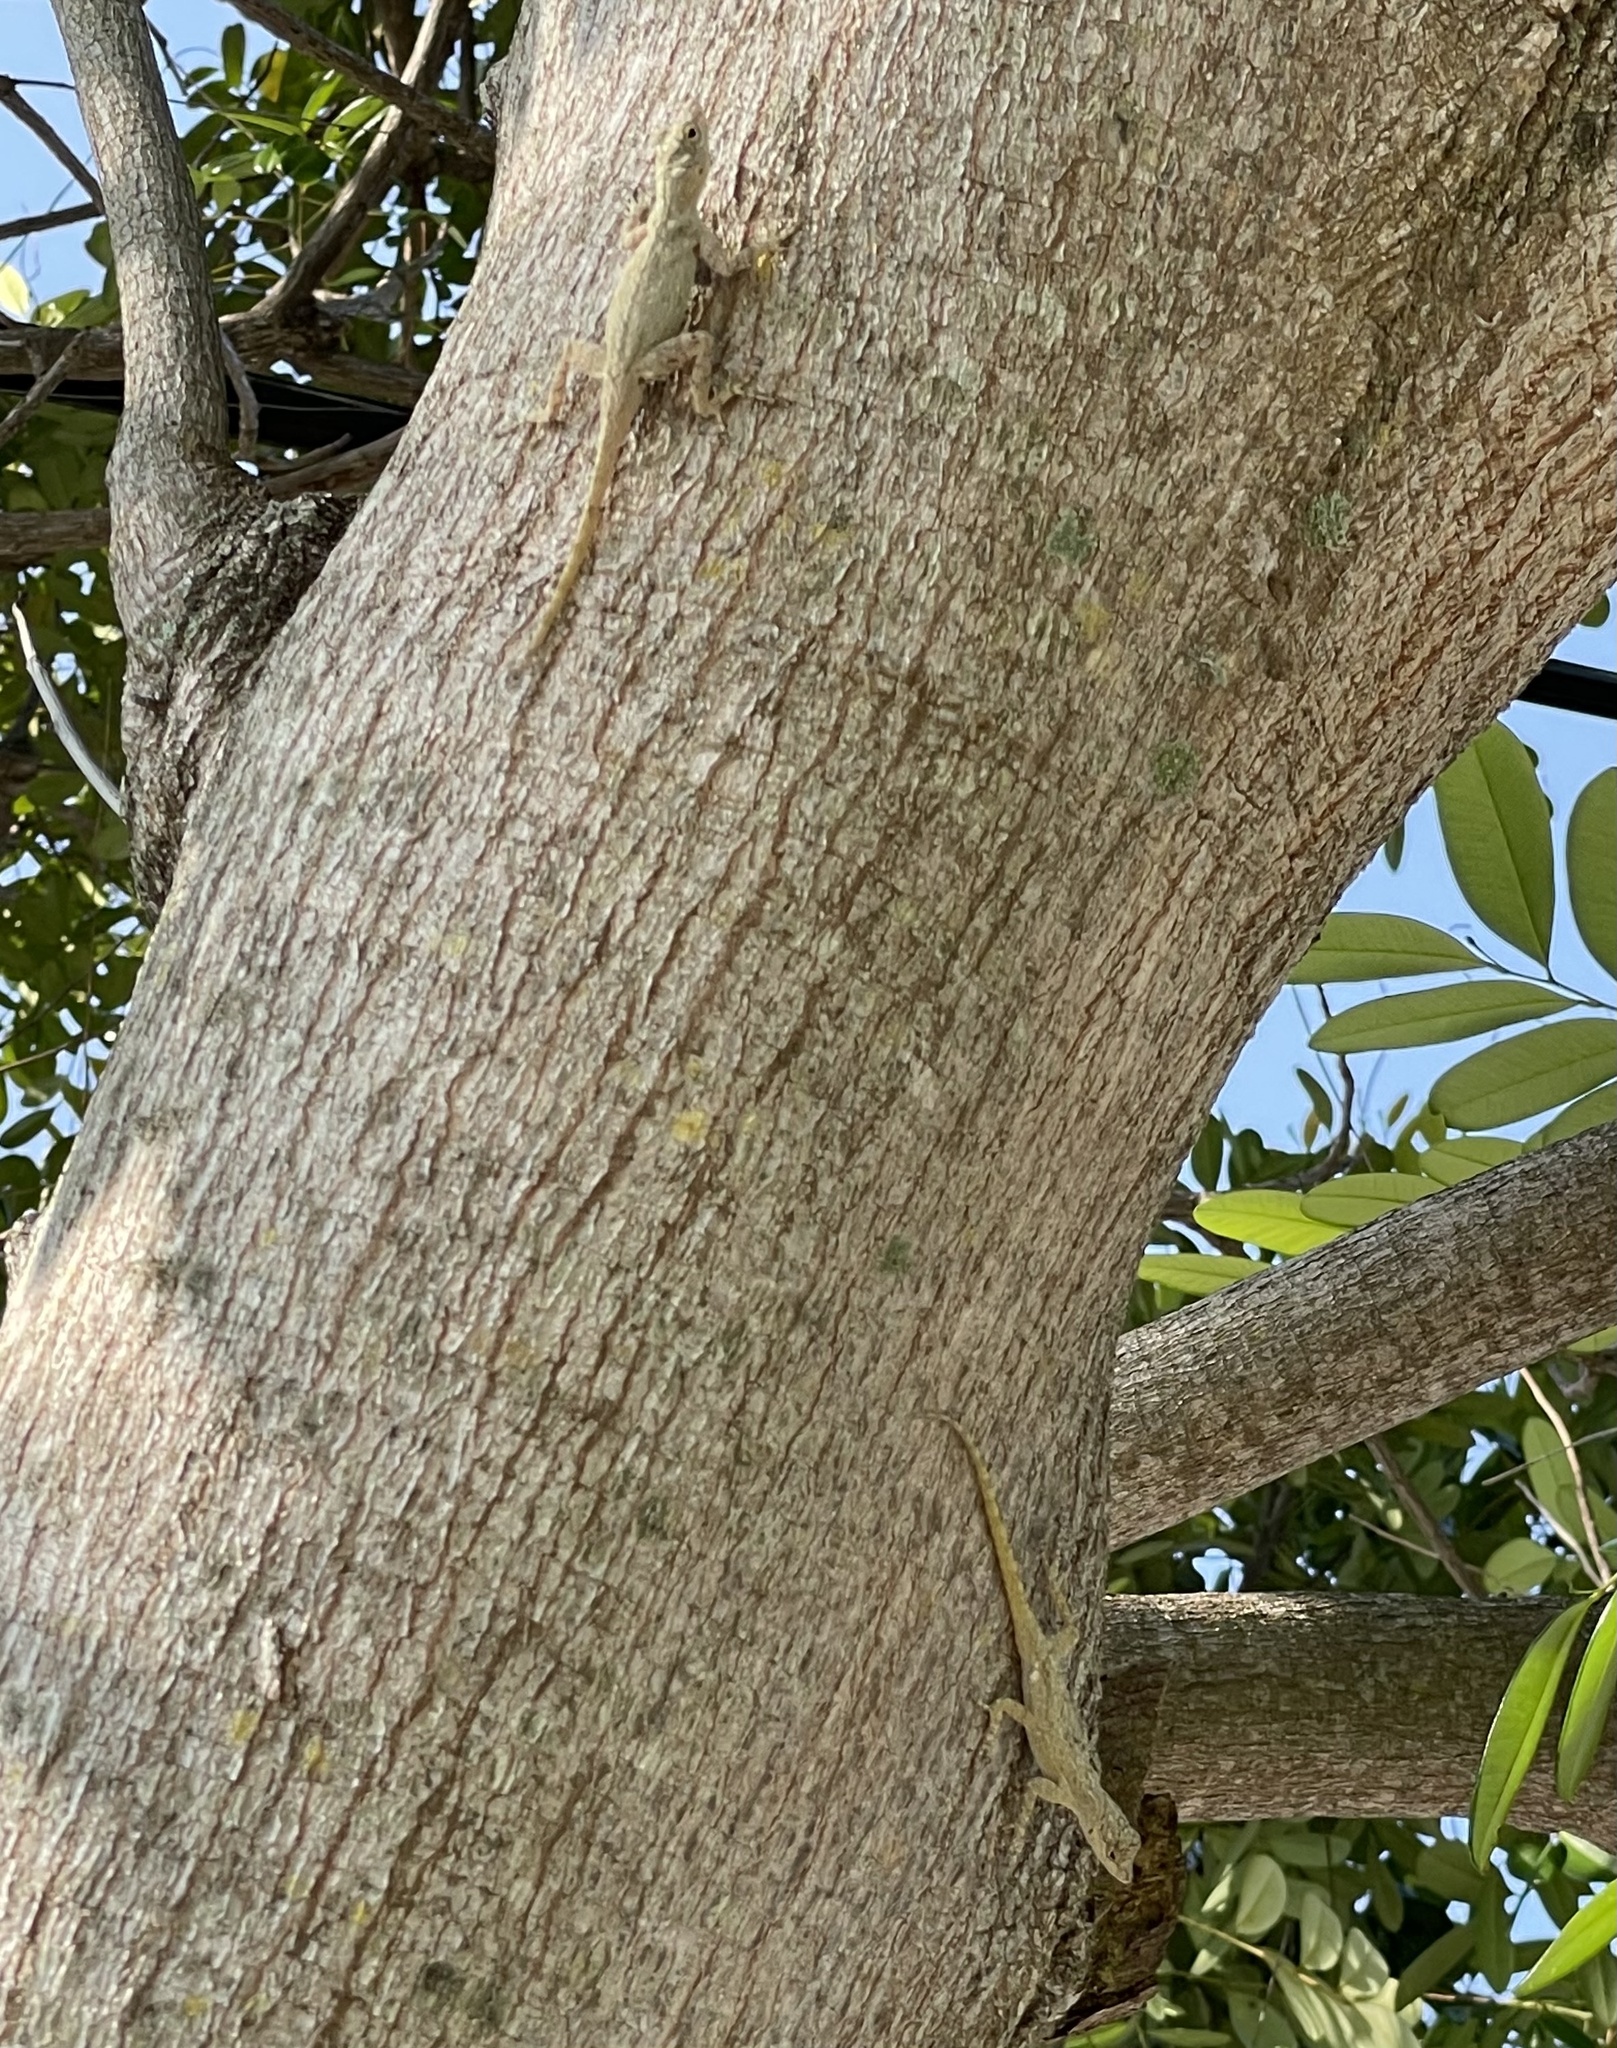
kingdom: Animalia
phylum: Chordata
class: Squamata
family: Dactyloidae
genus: Anolis
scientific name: Anolis distichus
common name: Bark anole
